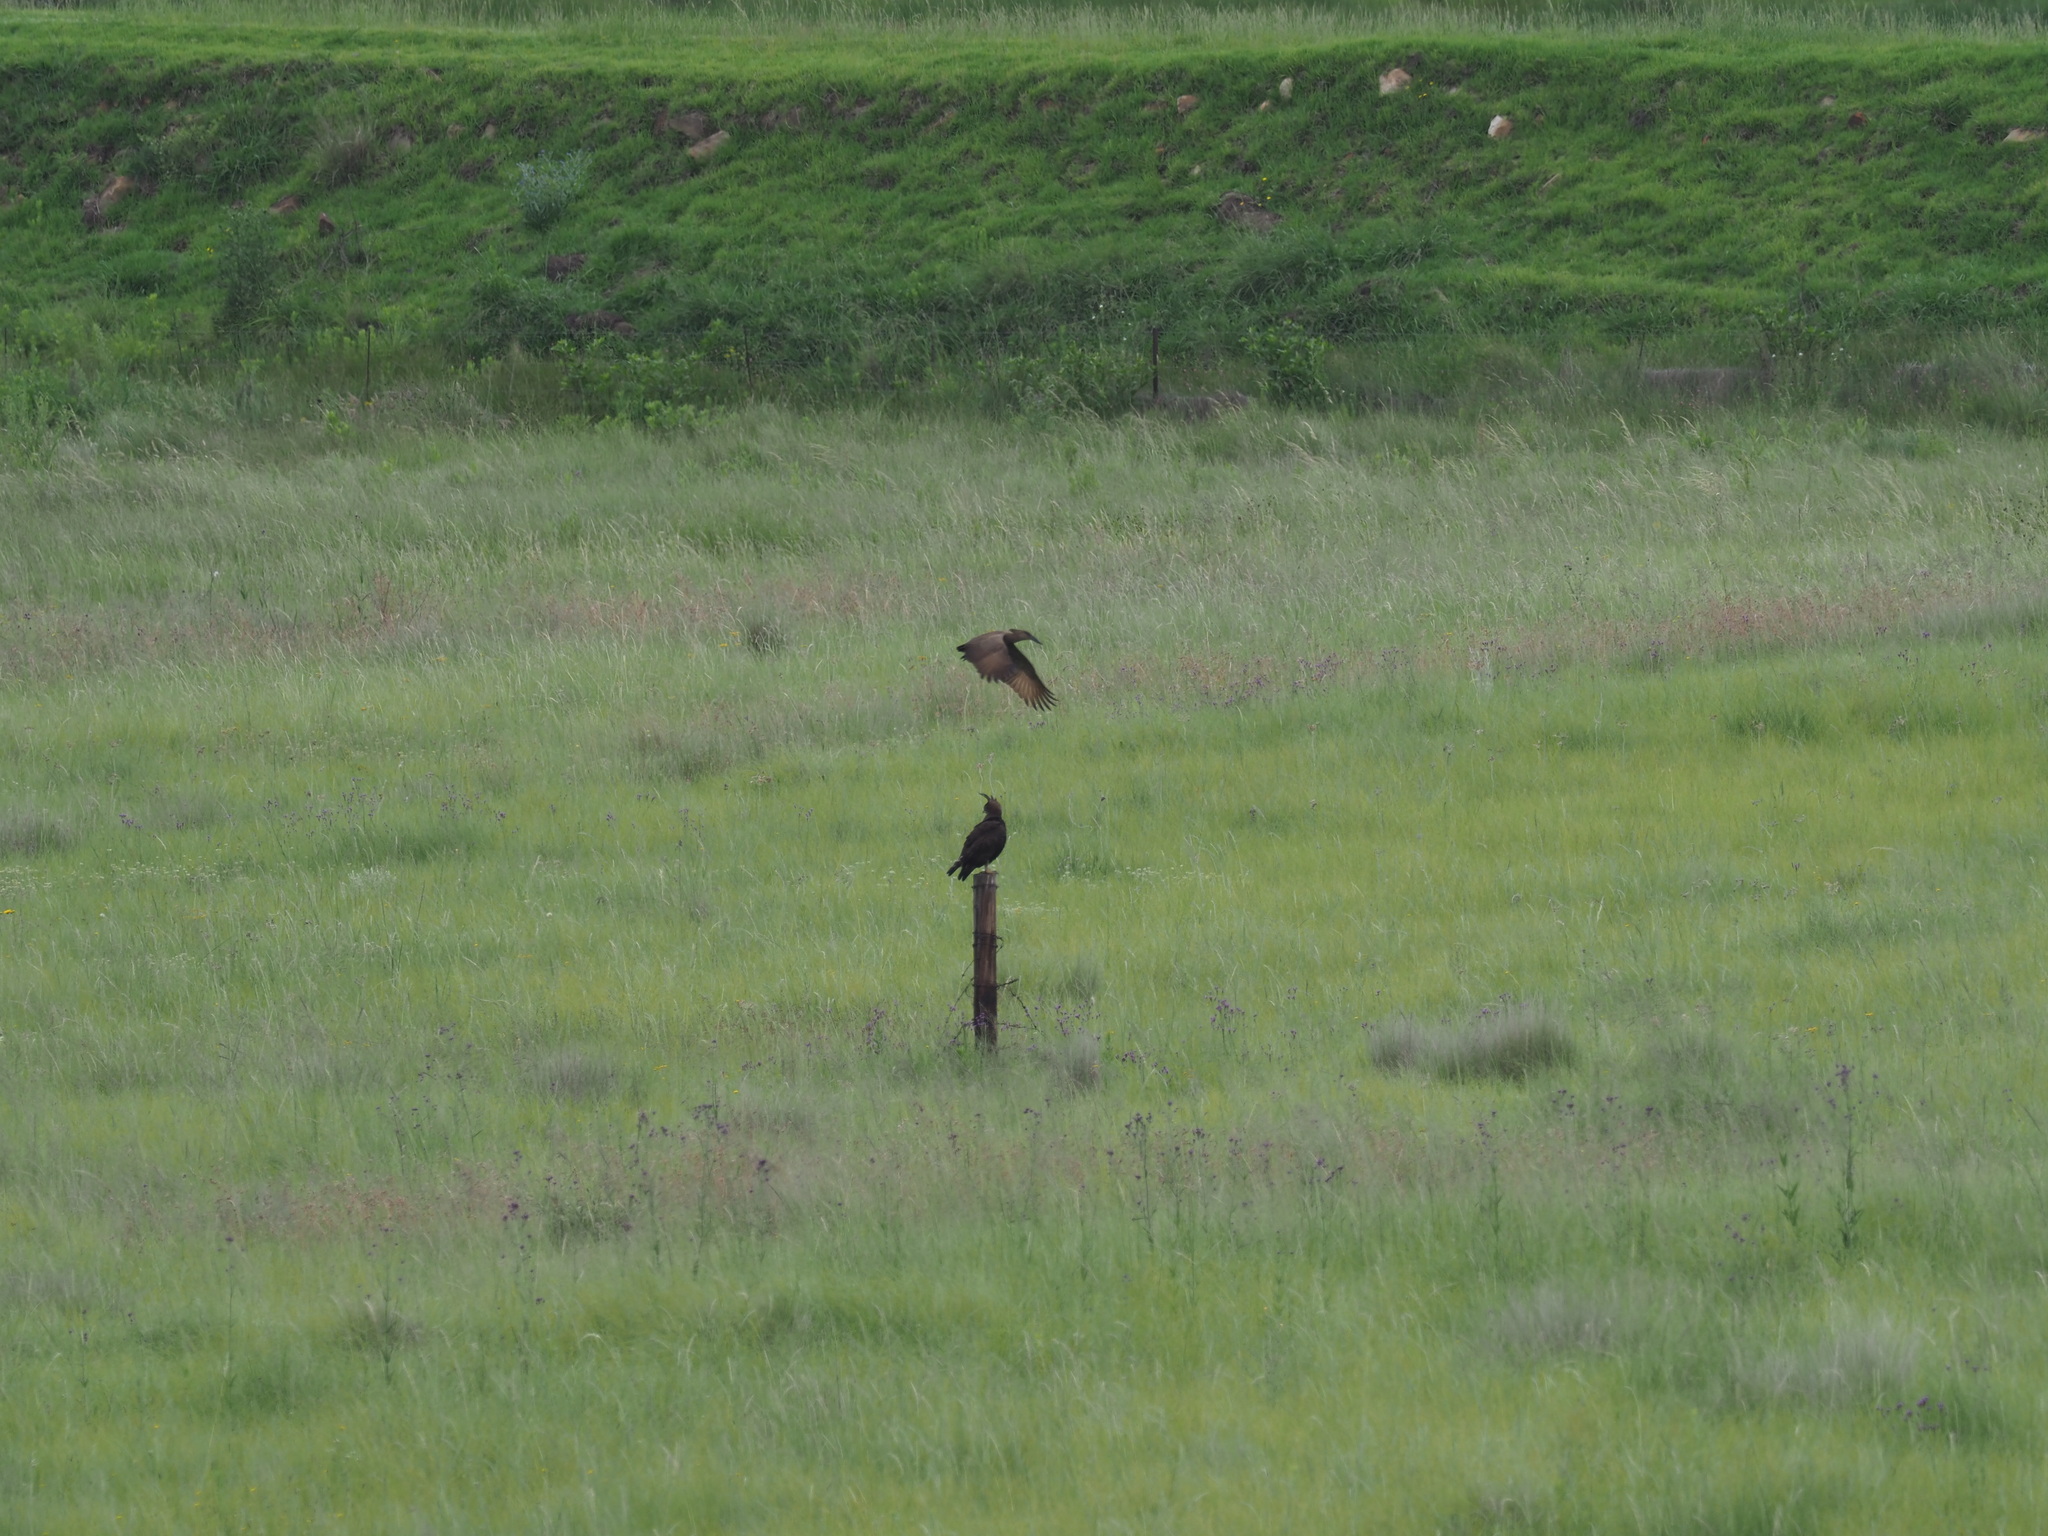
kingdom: Animalia
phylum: Chordata
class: Aves
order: Accipitriformes
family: Accipitridae
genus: Lophaetus
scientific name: Lophaetus occipitalis
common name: Long-crested eagle
